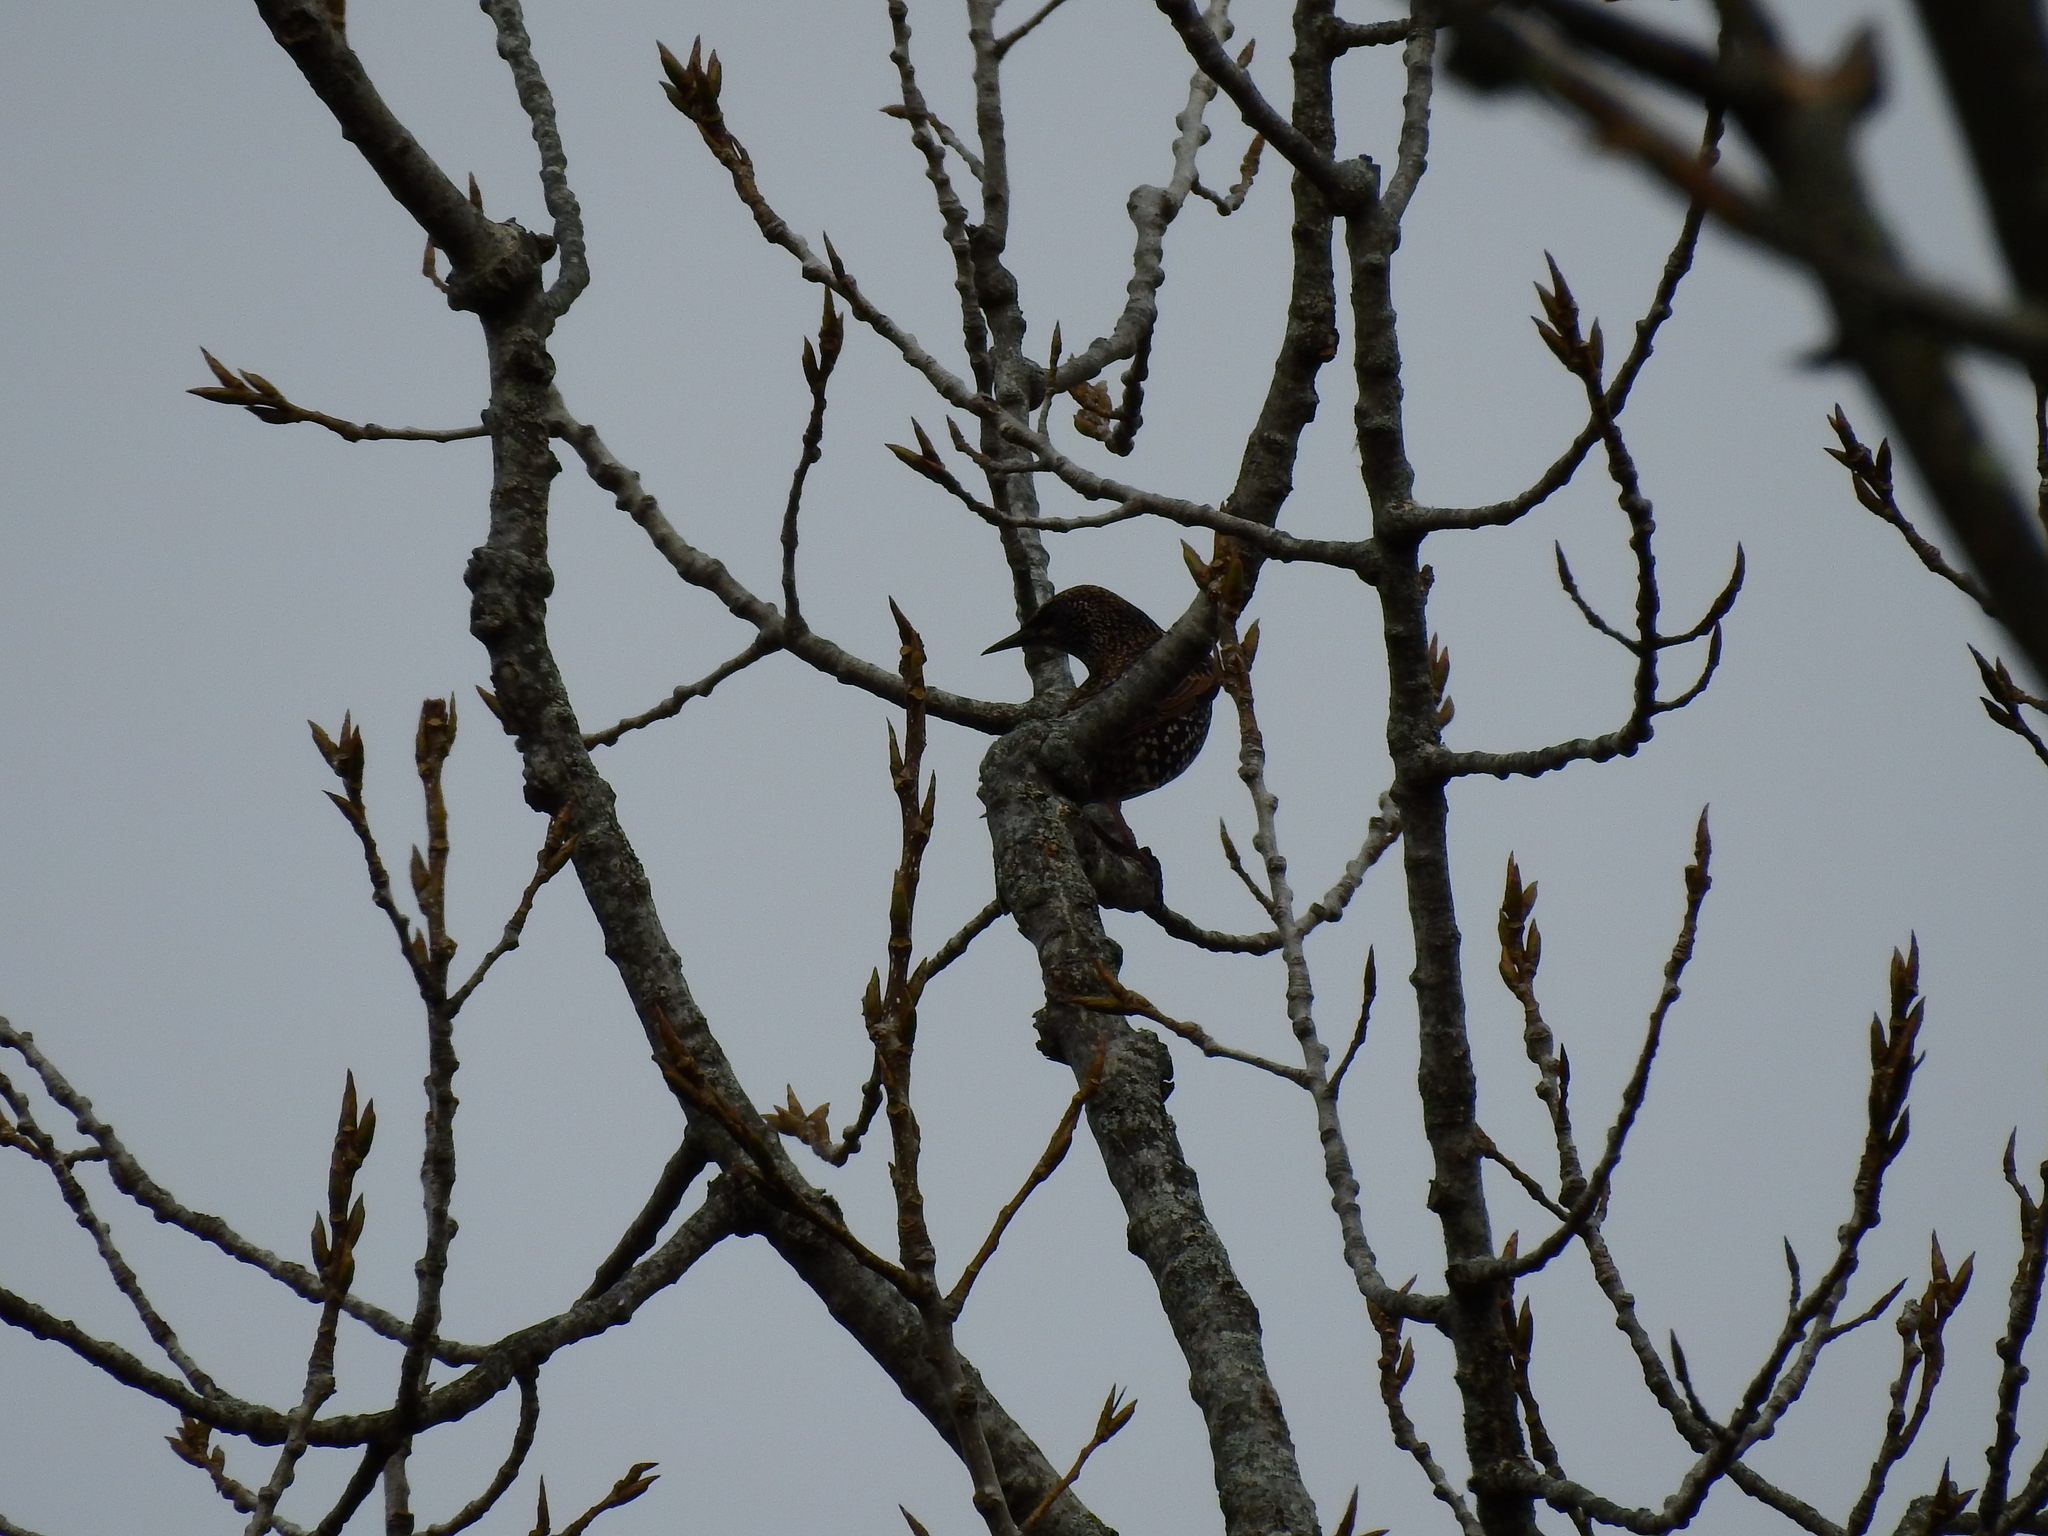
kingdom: Animalia
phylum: Chordata
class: Aves
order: Passeriformes
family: Sturnidae
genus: Sturnus
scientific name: Sturnus vulgaris
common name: Common starling
